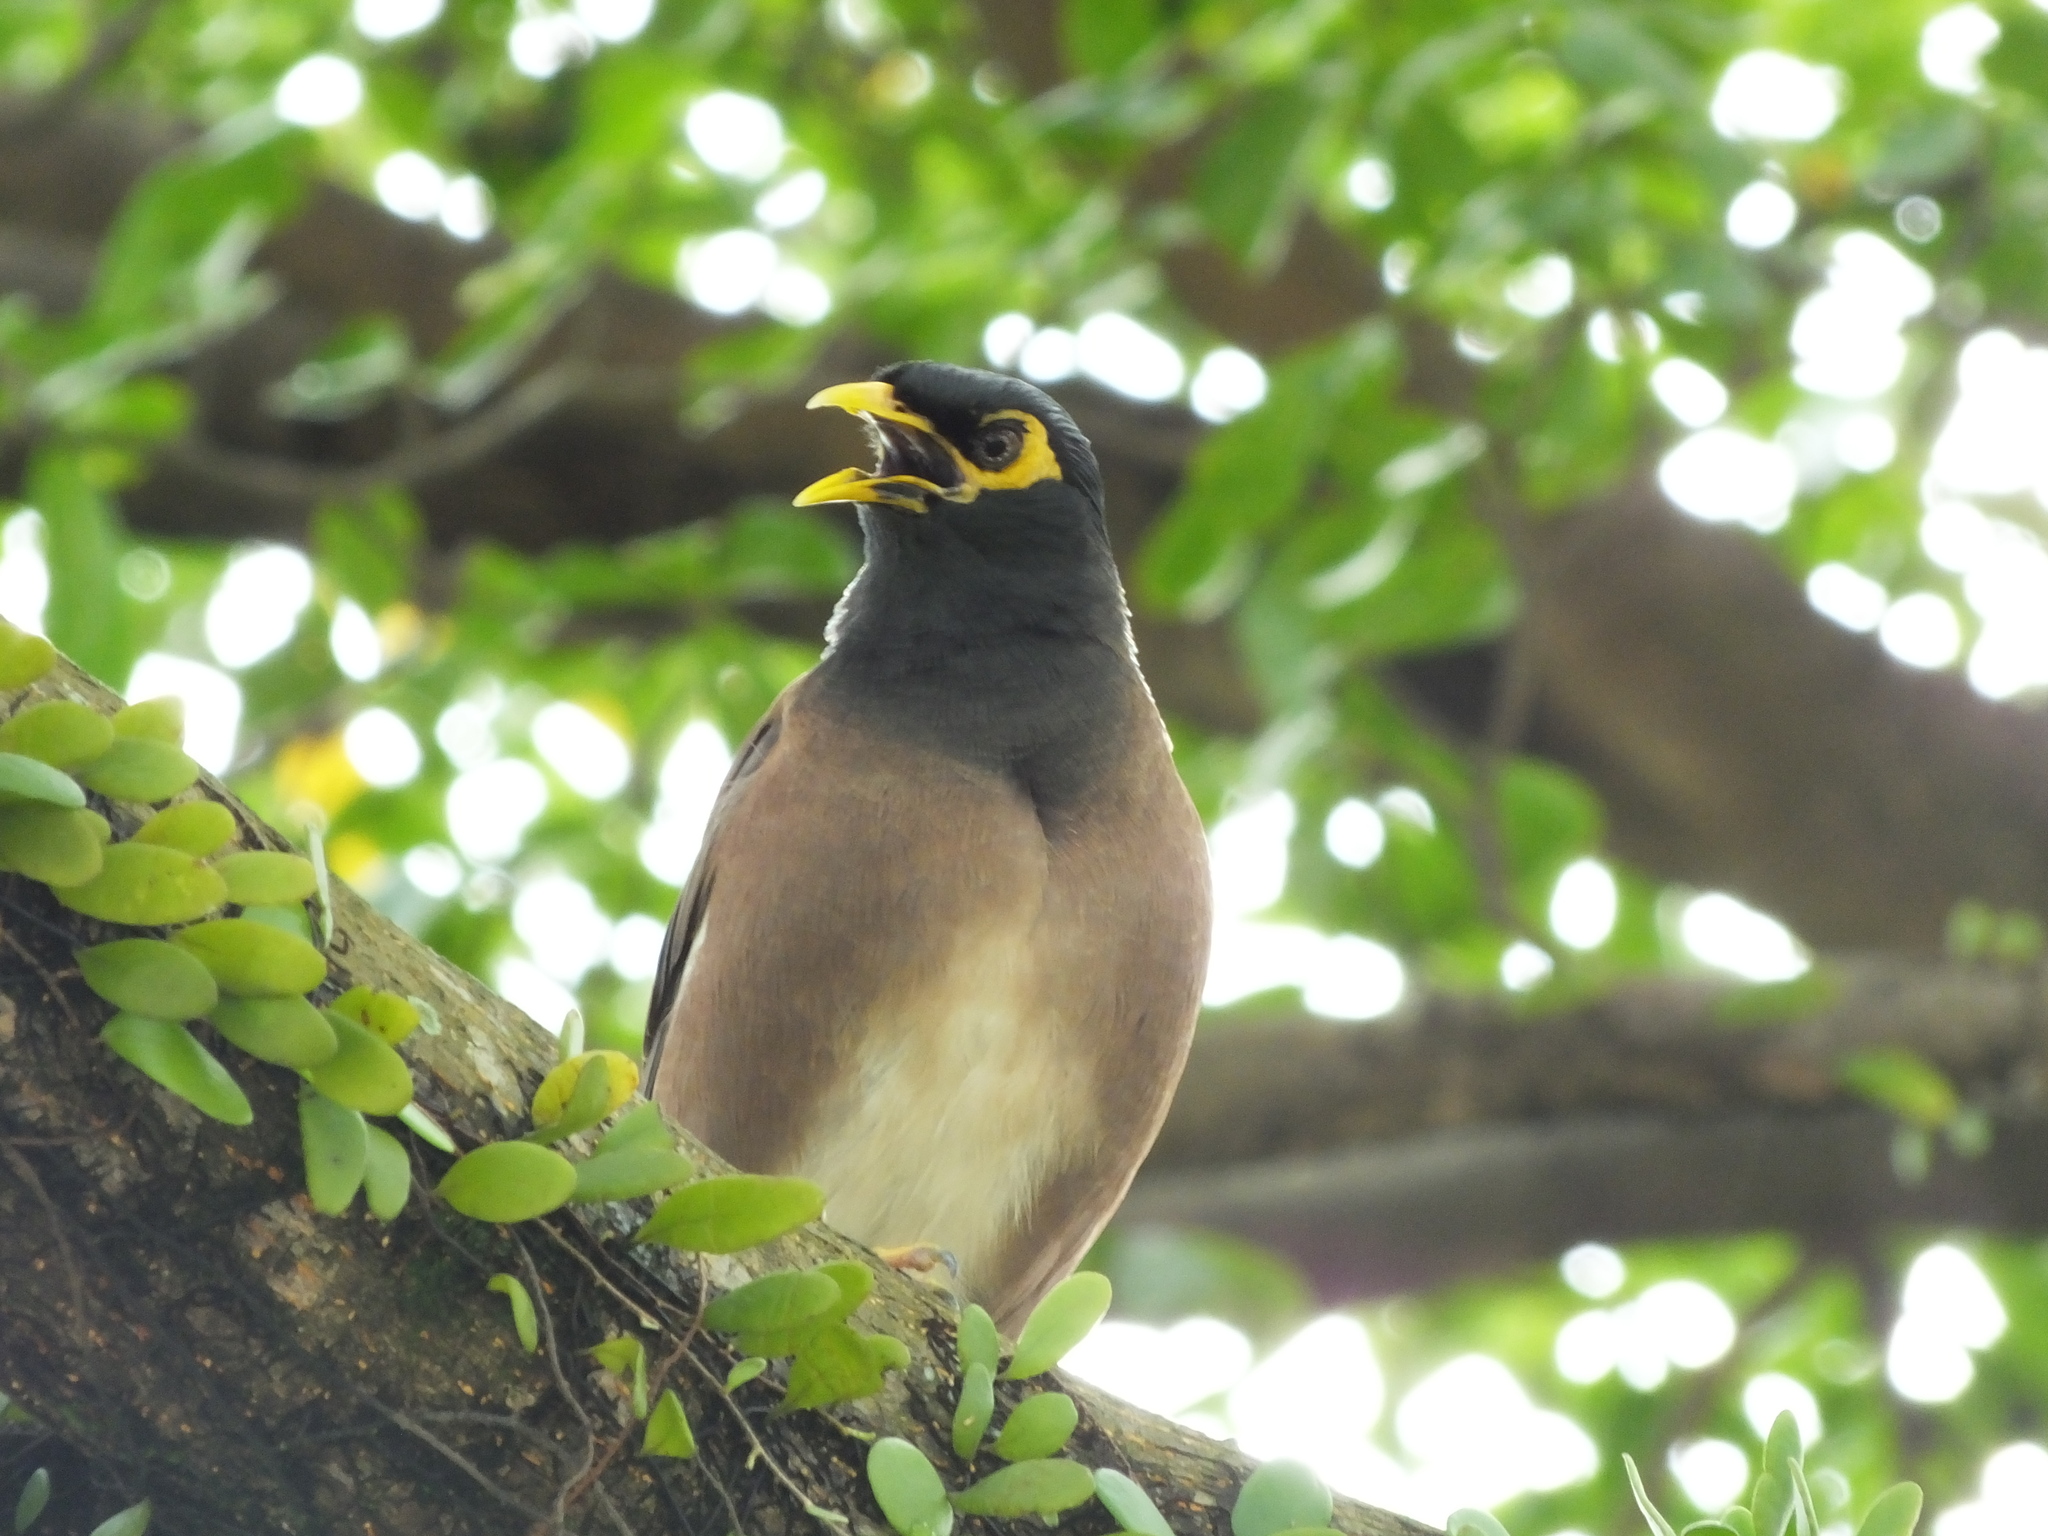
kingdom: Animalia
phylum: Chordata
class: Aves
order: Passeriformes
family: Sturnidae
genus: Acridotheres
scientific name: Acridotheres tristis
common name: Common myna
